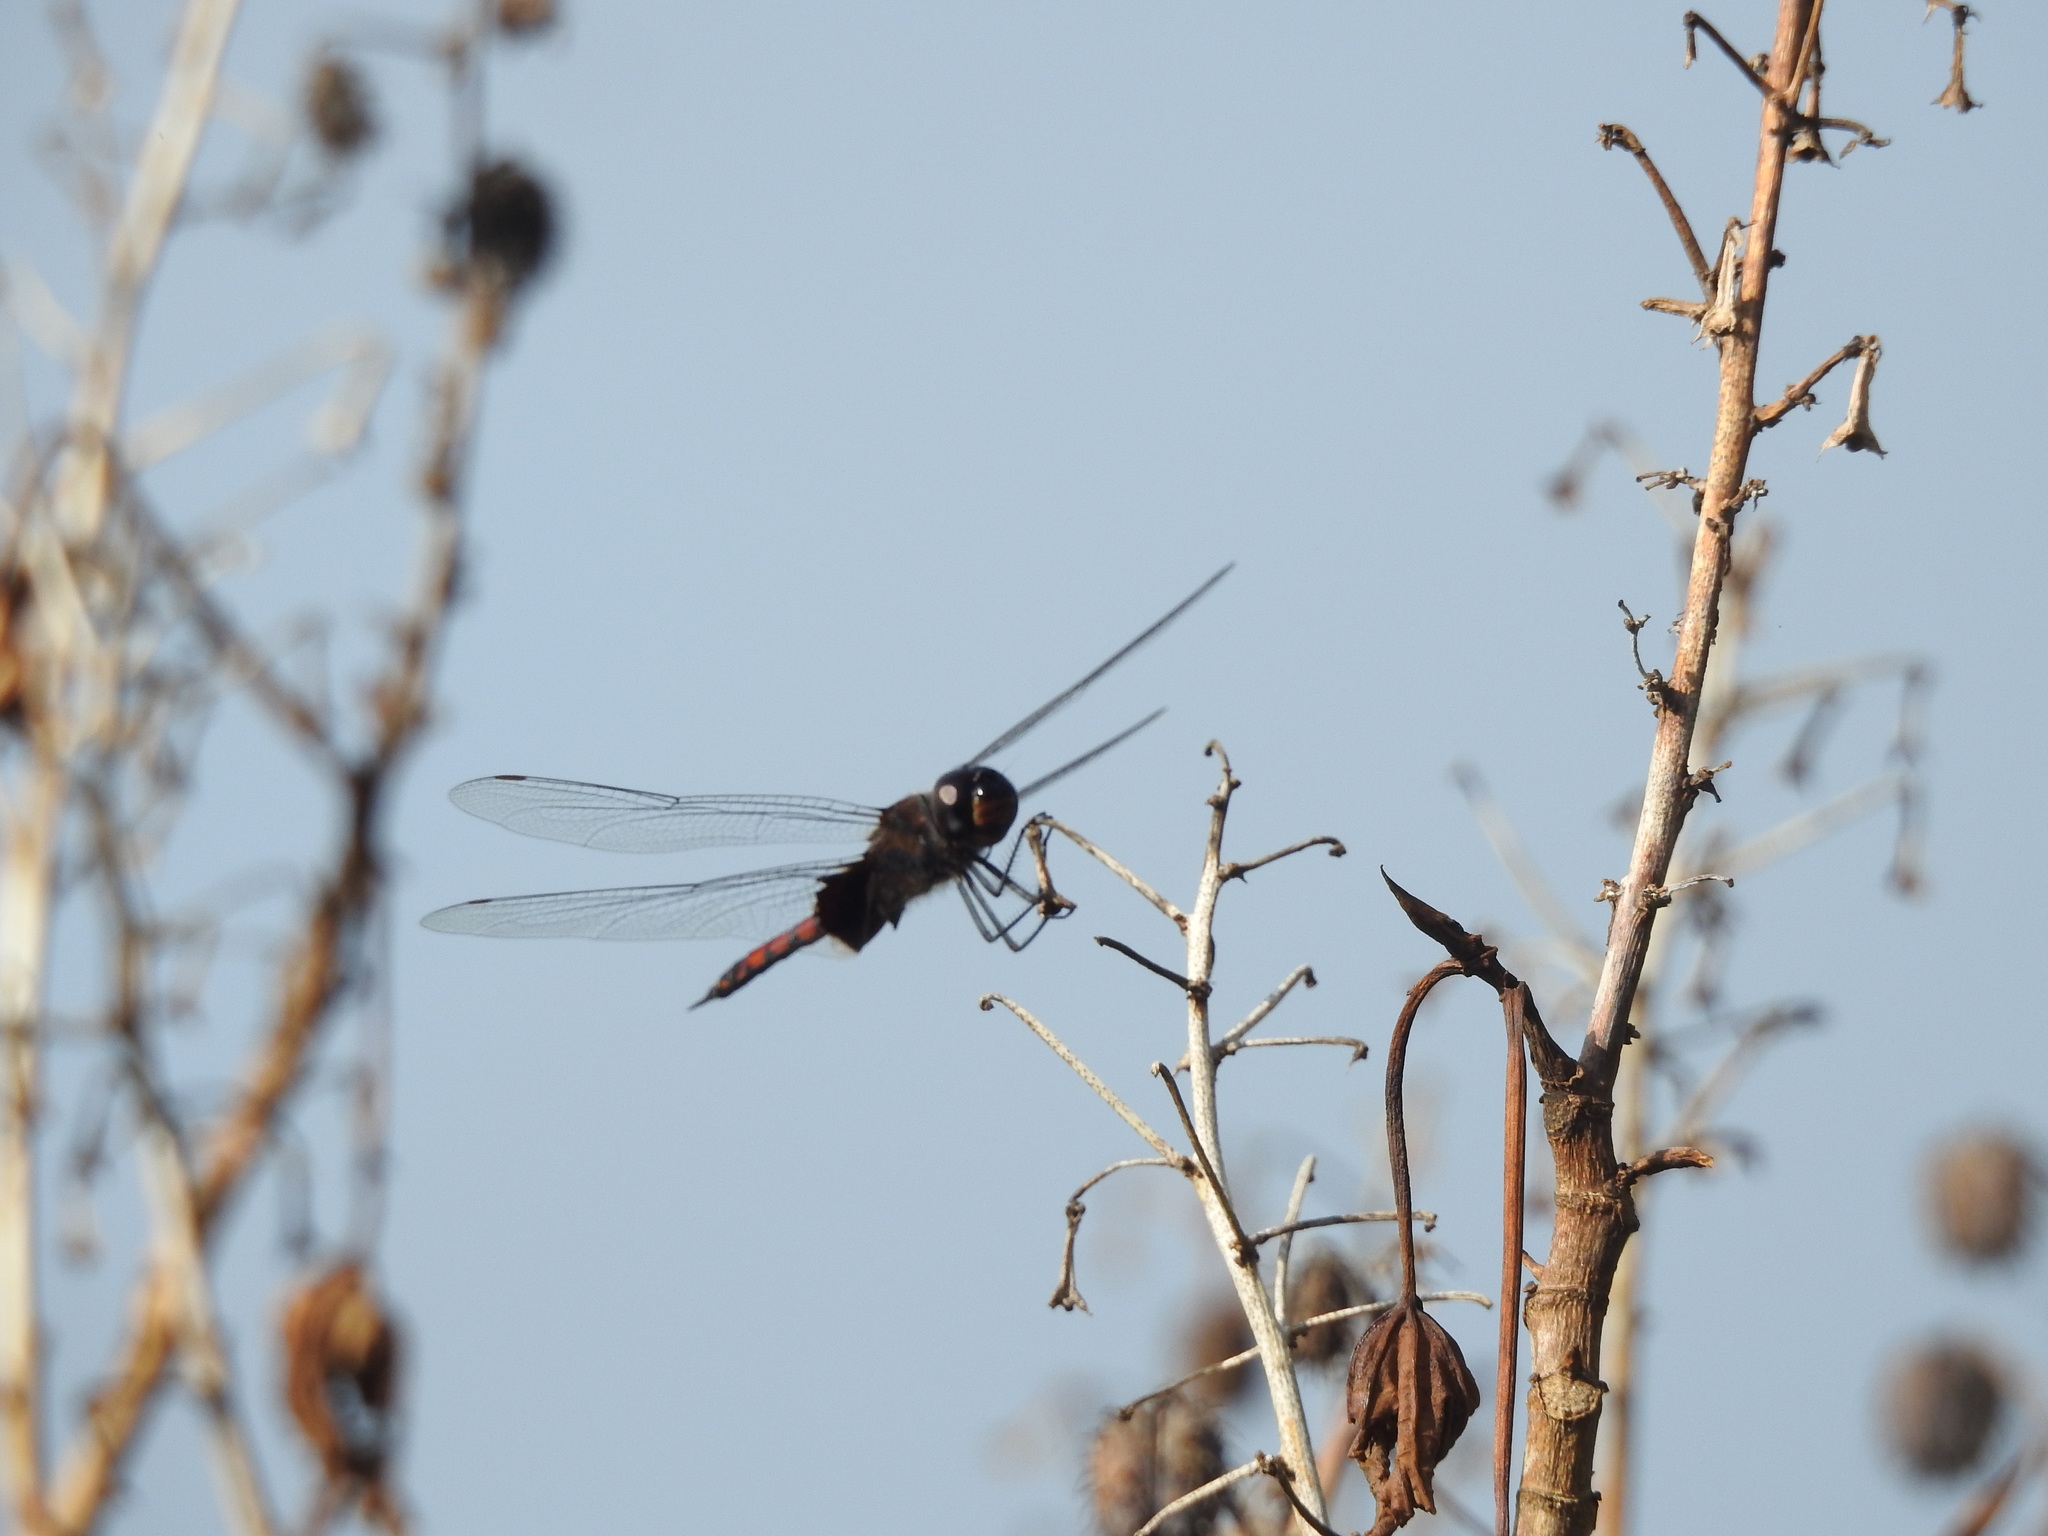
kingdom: Animalia
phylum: Arthropoda
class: Insecta
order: Odonata
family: Libellulidae
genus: Tramea
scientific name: Tramea limbata
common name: Ferruginous glider
